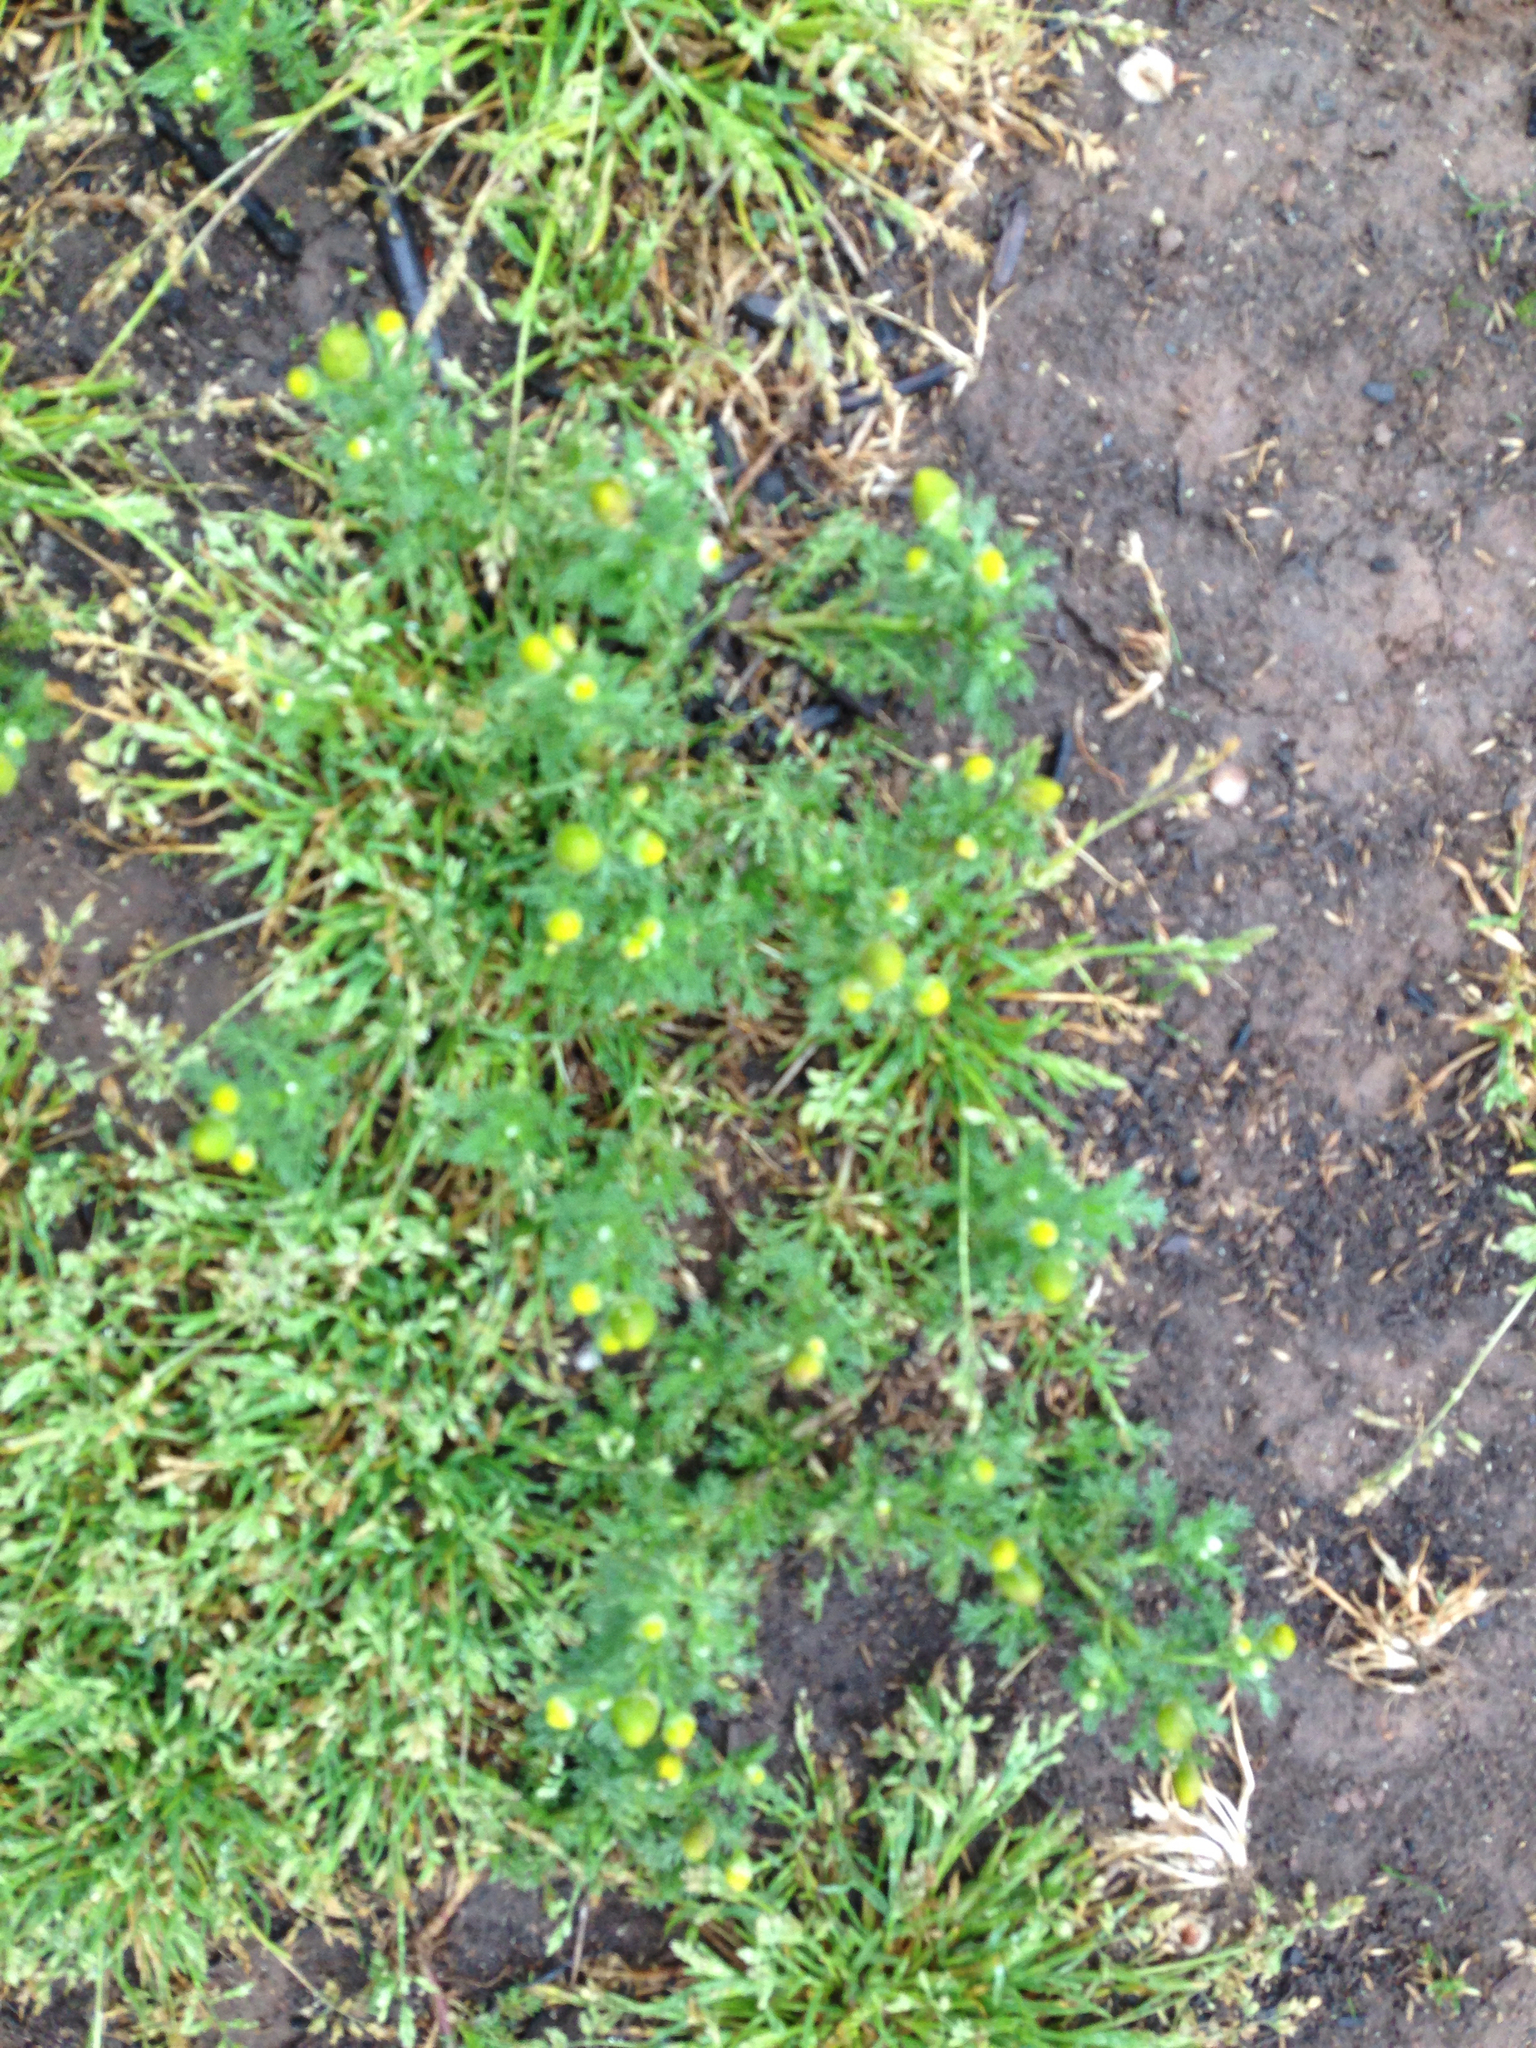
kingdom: Plantae
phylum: Tracheophyta
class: Magnoliopsida
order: Asterales
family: Asteraceae
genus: Matricaria
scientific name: Matricaria discoidea
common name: Disc mayweed
